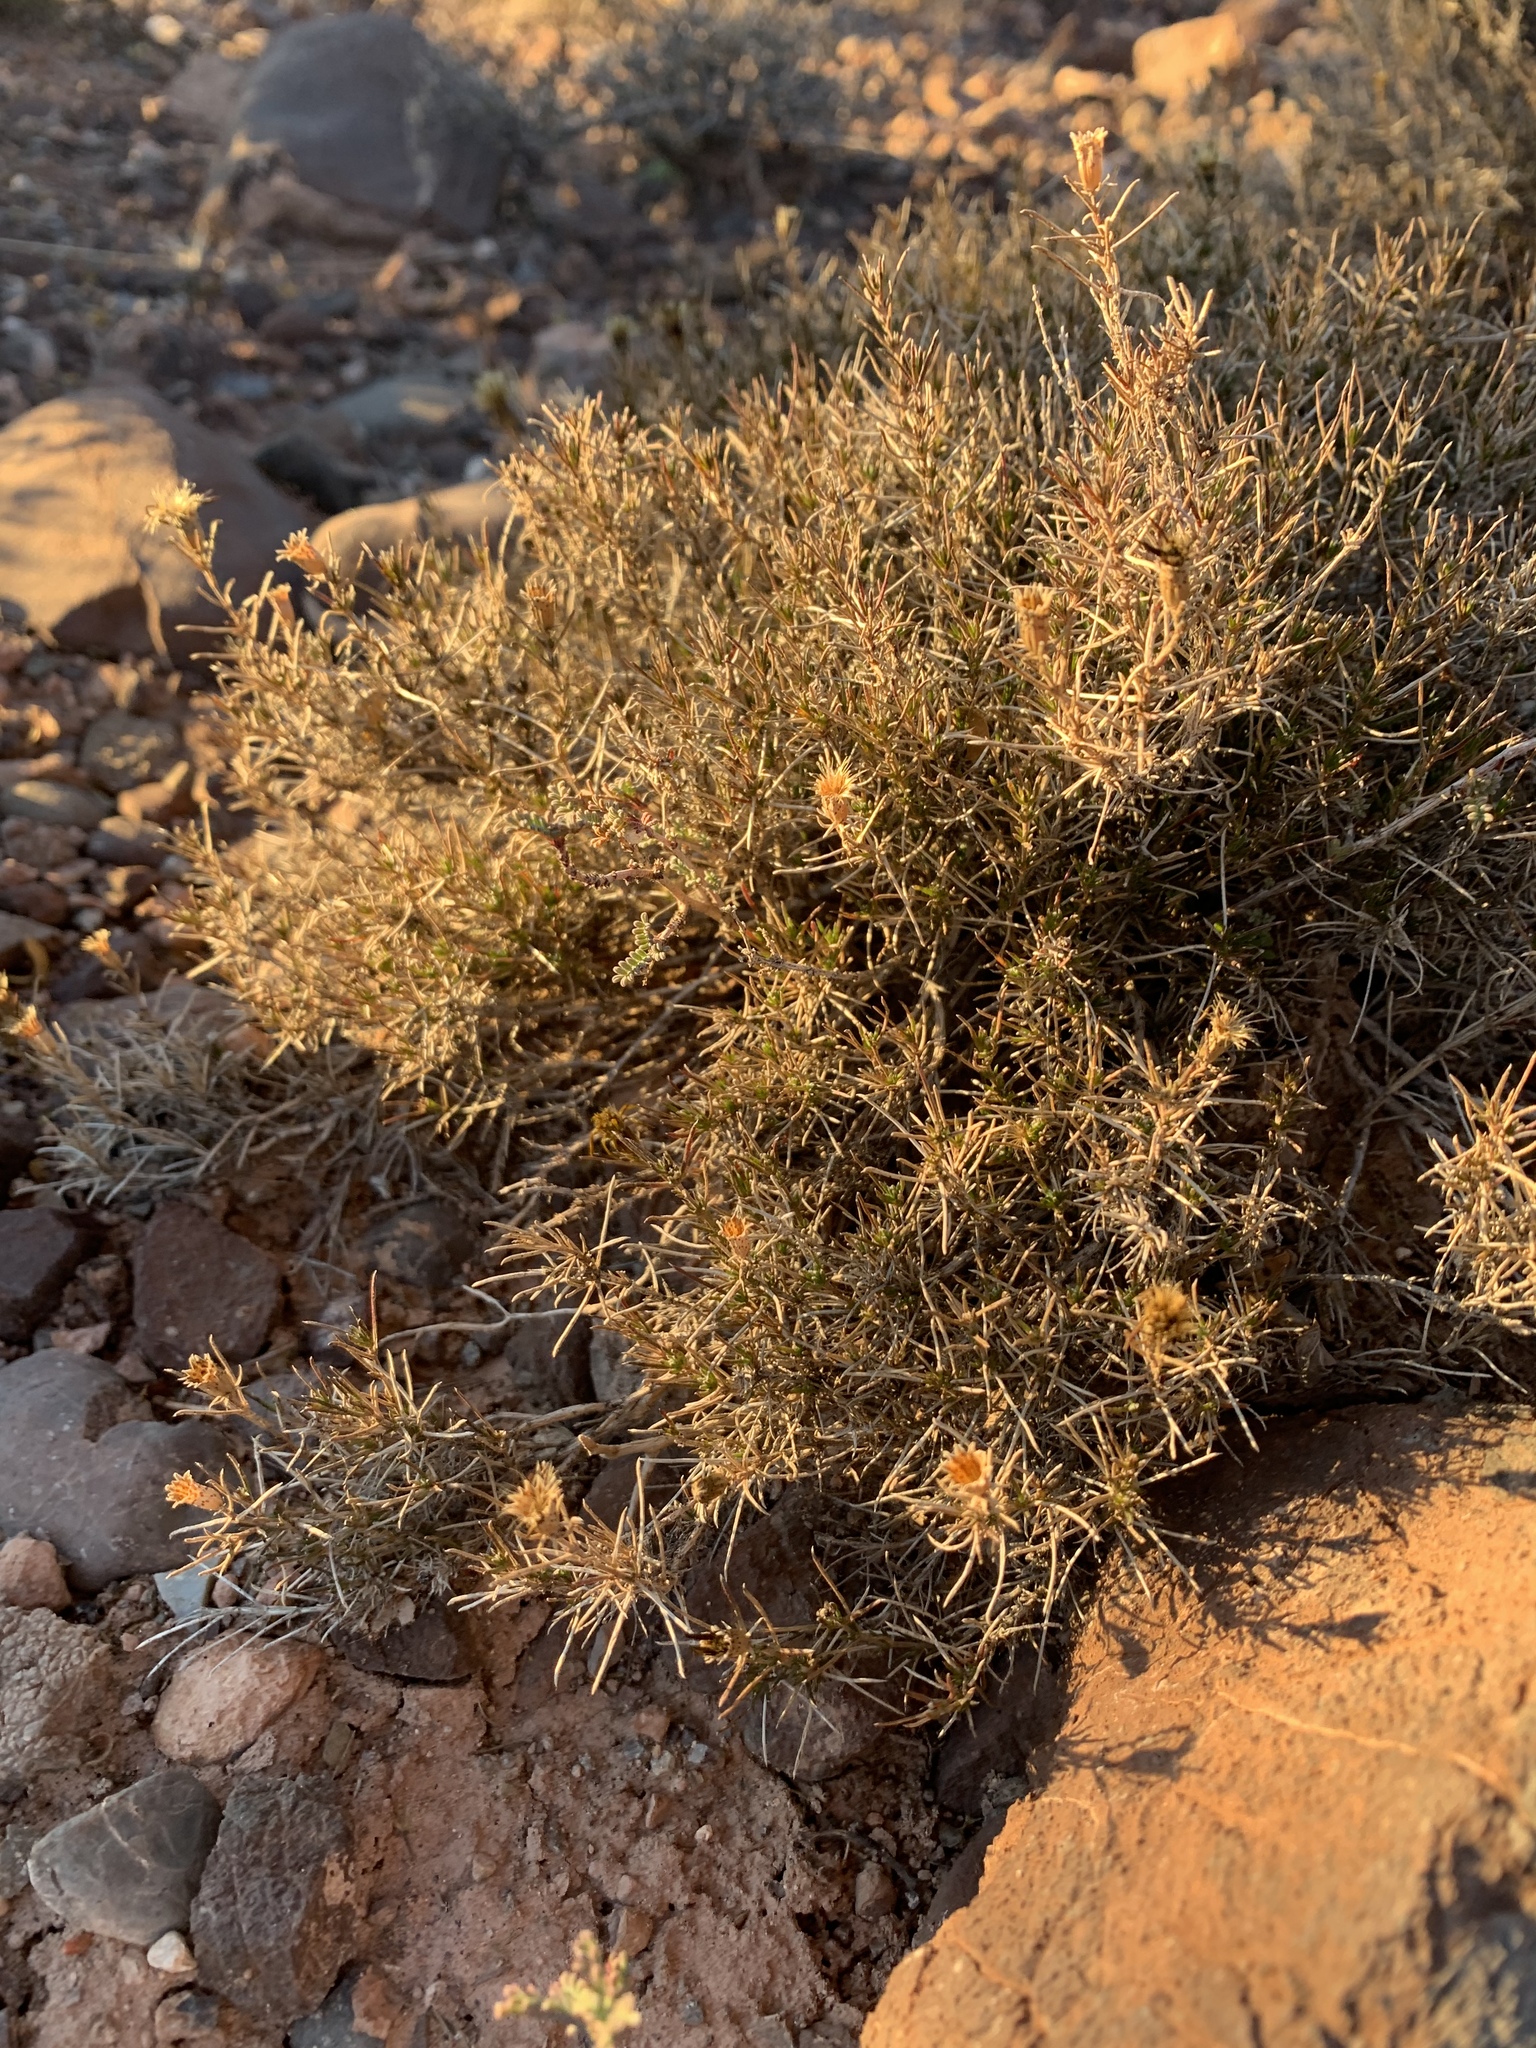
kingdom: Plantae
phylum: Tracheophyta
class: Magnoliopsida
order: Asterales
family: Asteraceae
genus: Thymophylla
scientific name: Thymophylla acerosa
